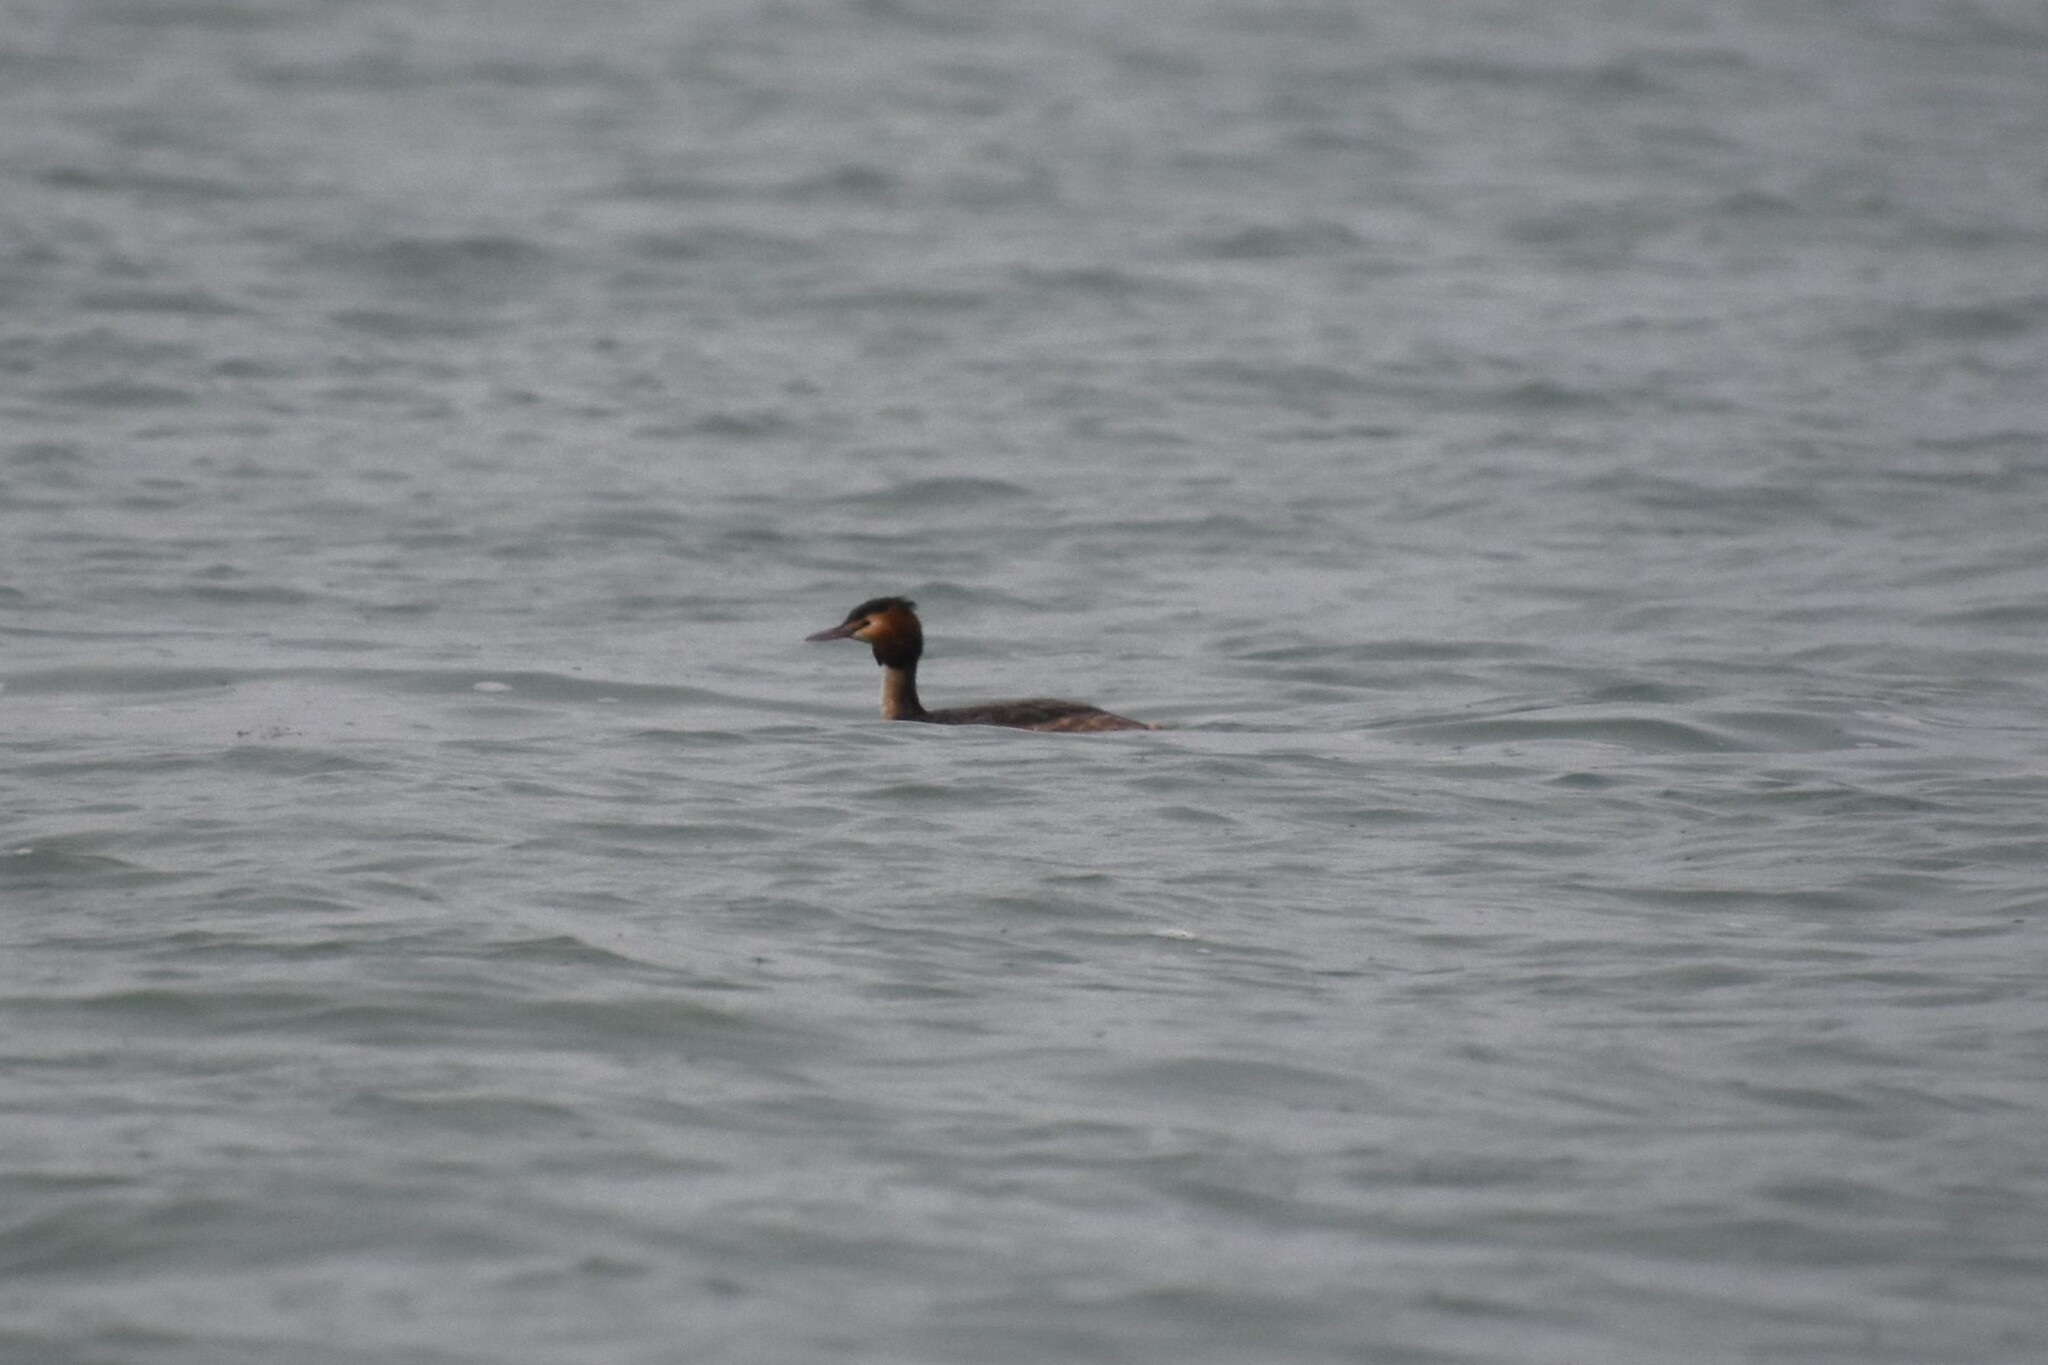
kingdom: Animalia
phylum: Chordata
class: Aves
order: Podicipediformes
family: Podicipedidae
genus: Podiceps
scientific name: Podiceps cristatus
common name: Great crested grebe
